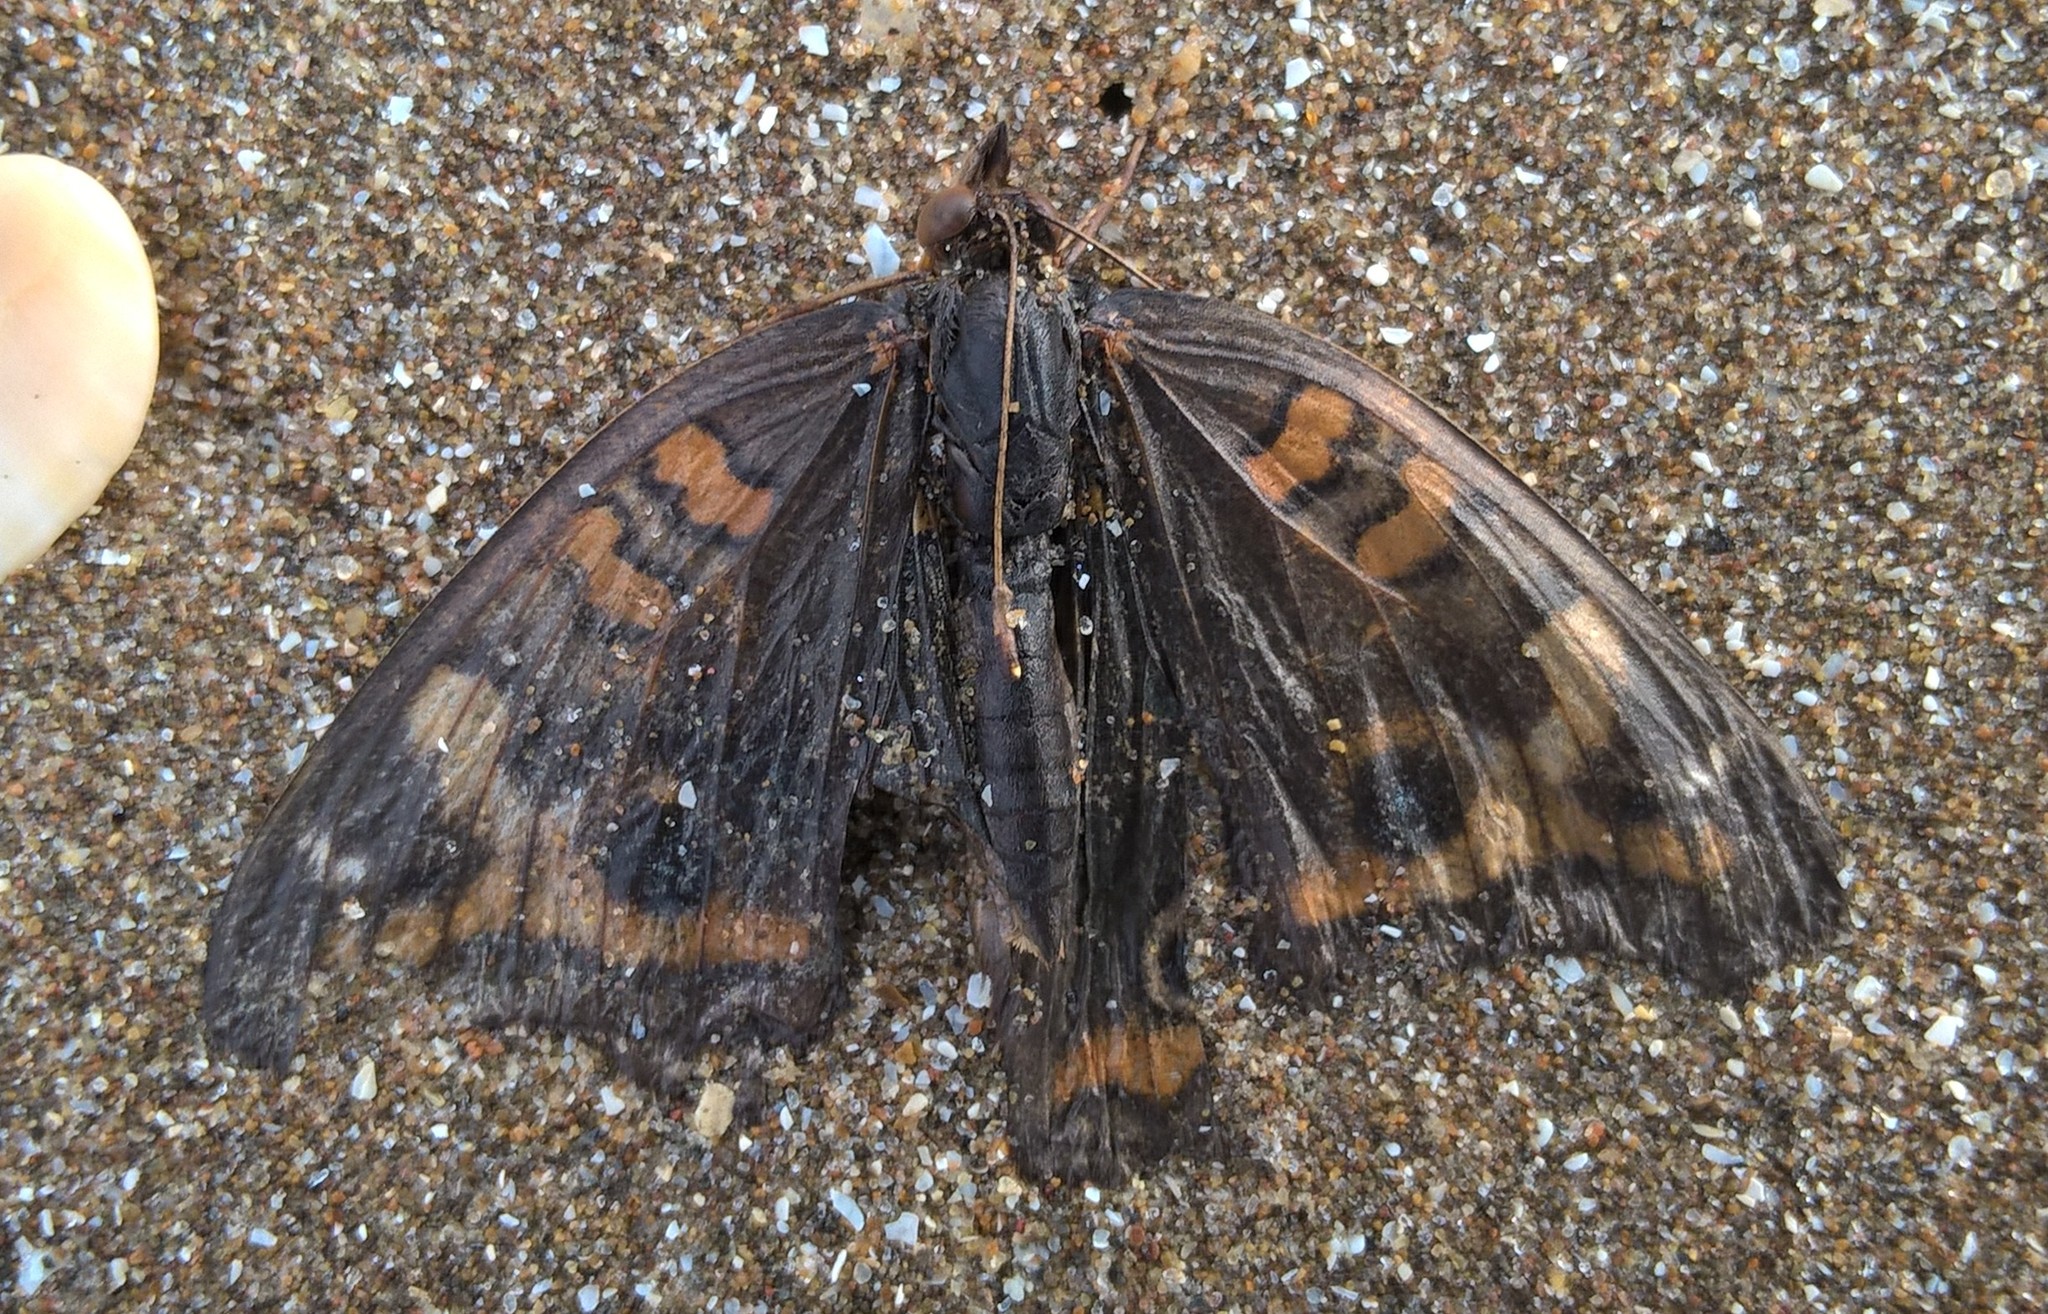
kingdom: Animalia
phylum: Arthropoda
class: Insecta
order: Lepidoptera
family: Nymphalidae
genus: Junonia
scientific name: Junonia lavinia
